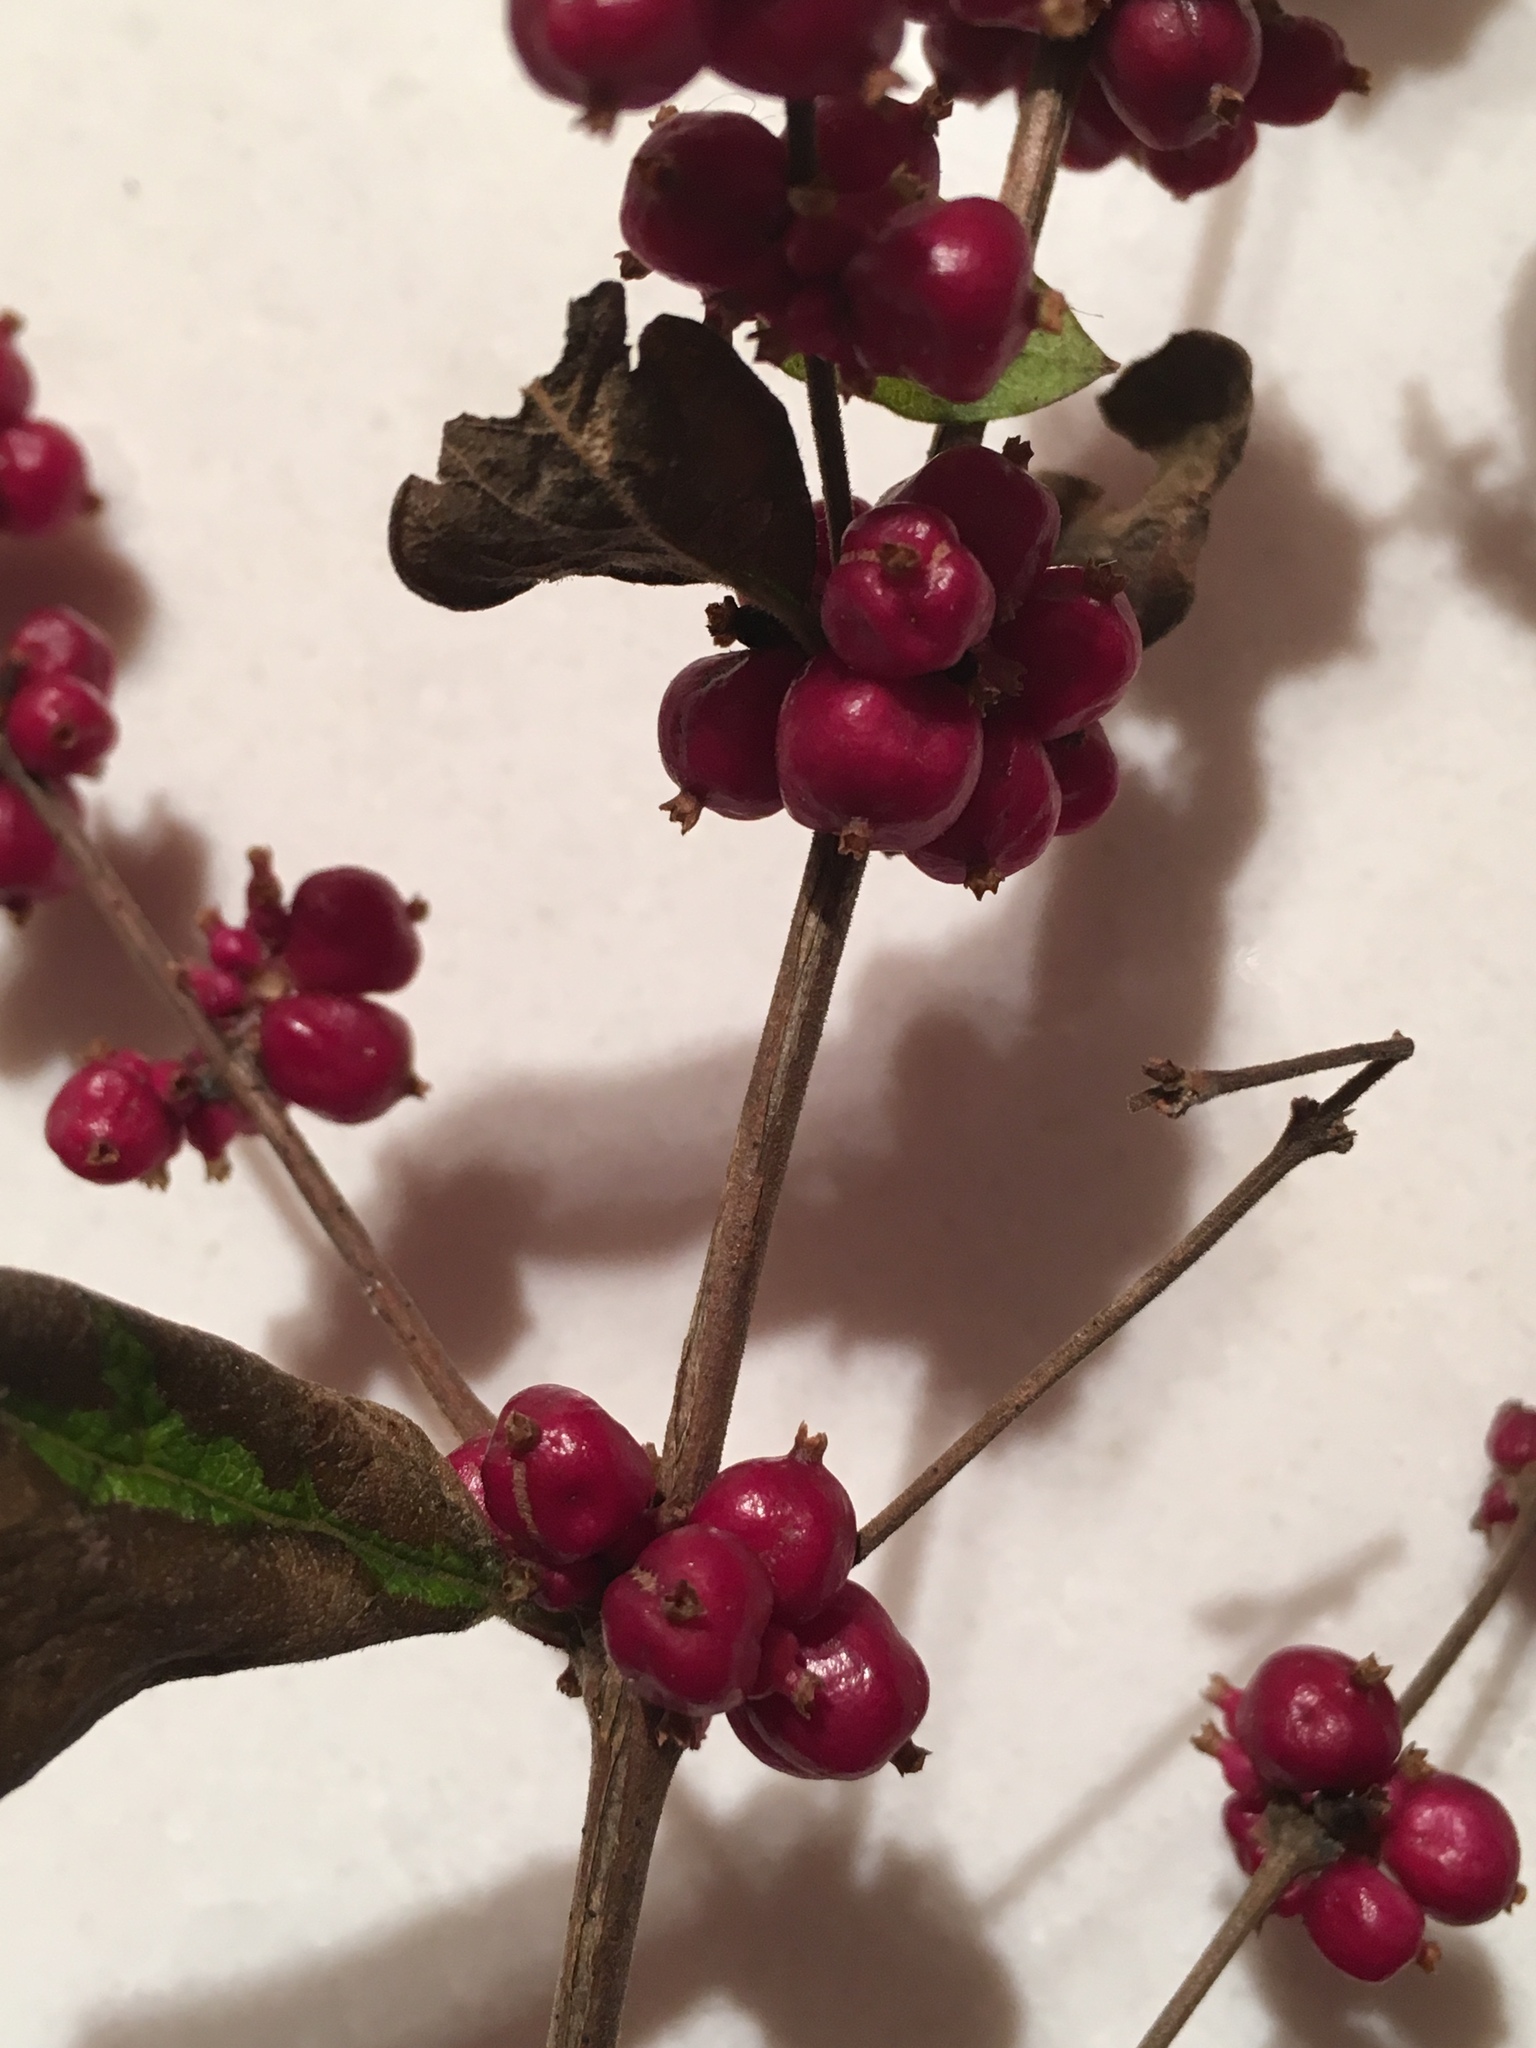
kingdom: Plantae
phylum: Tracheophyta
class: Magnoliopsida
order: Dipsacales
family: Caprifoliaceae
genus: Symphoricarpos
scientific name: Symphoricarpos orbiculatus
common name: Coralberry
